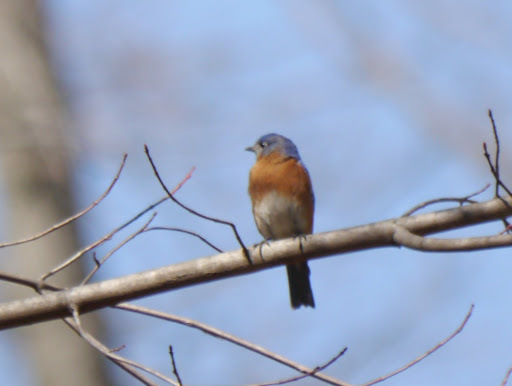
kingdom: Animalia
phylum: Chordata
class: Aves
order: Passeriformes
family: Turdidae
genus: Sialia
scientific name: Sialia sialis
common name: Eastern bluebird
